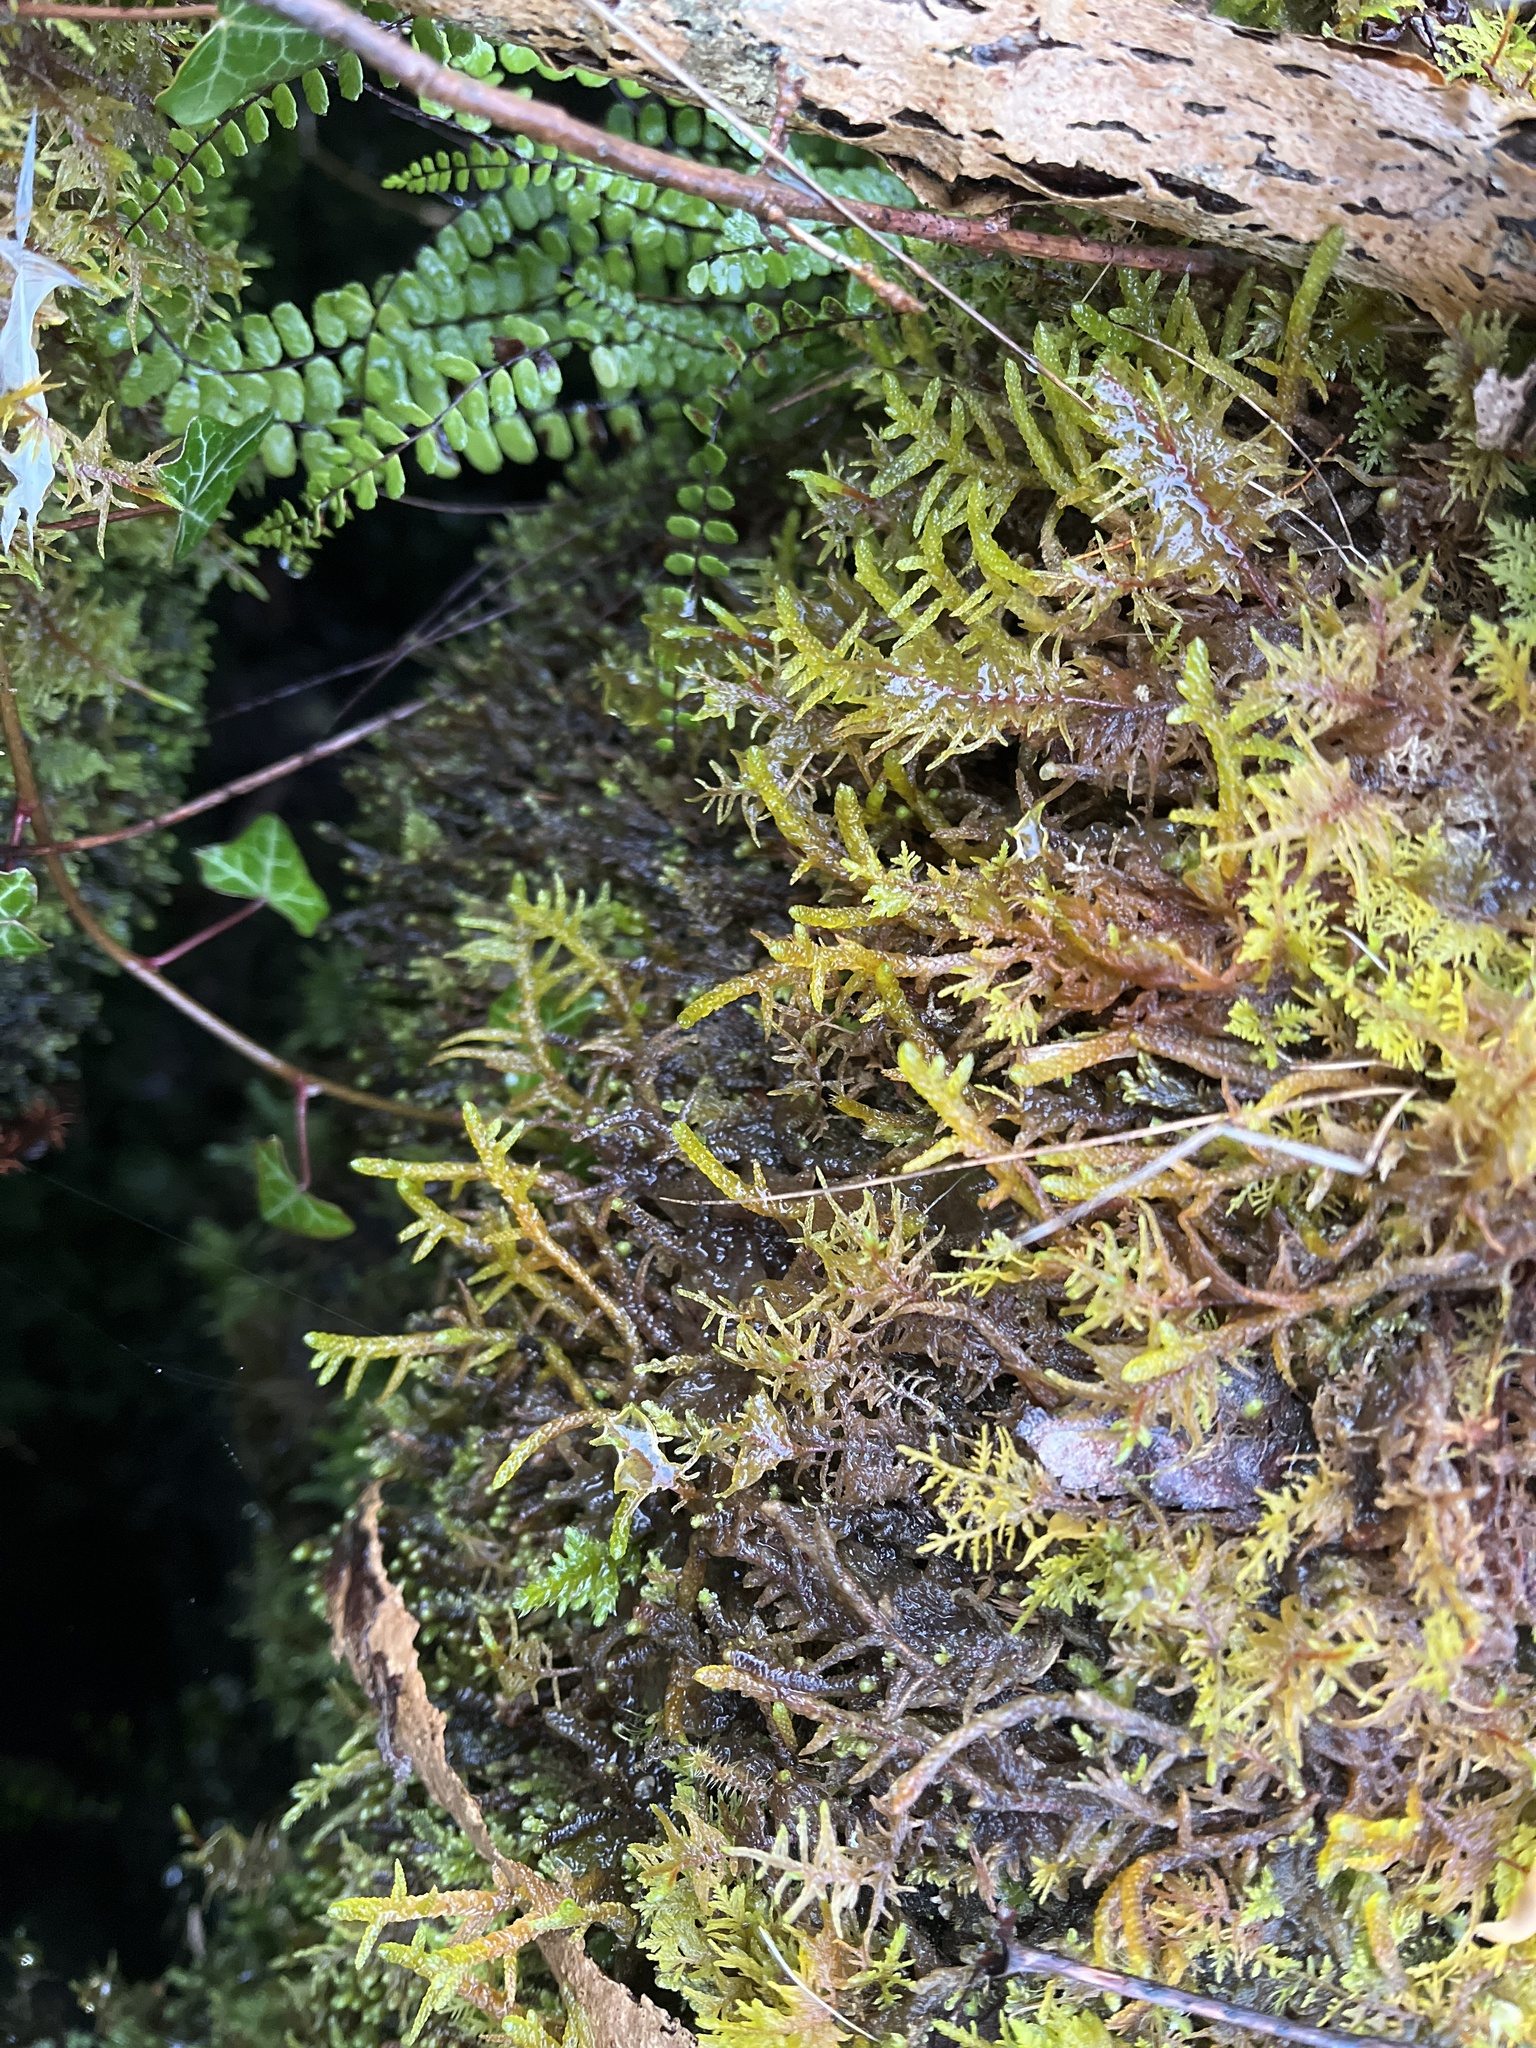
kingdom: Plantae
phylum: Bryophyta
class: Bryopsida
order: Hypnales
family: Brachytheciaceae
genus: Pseudoscleropodium
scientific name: Pseudoscleropodium purum
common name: Neat feather-moss
